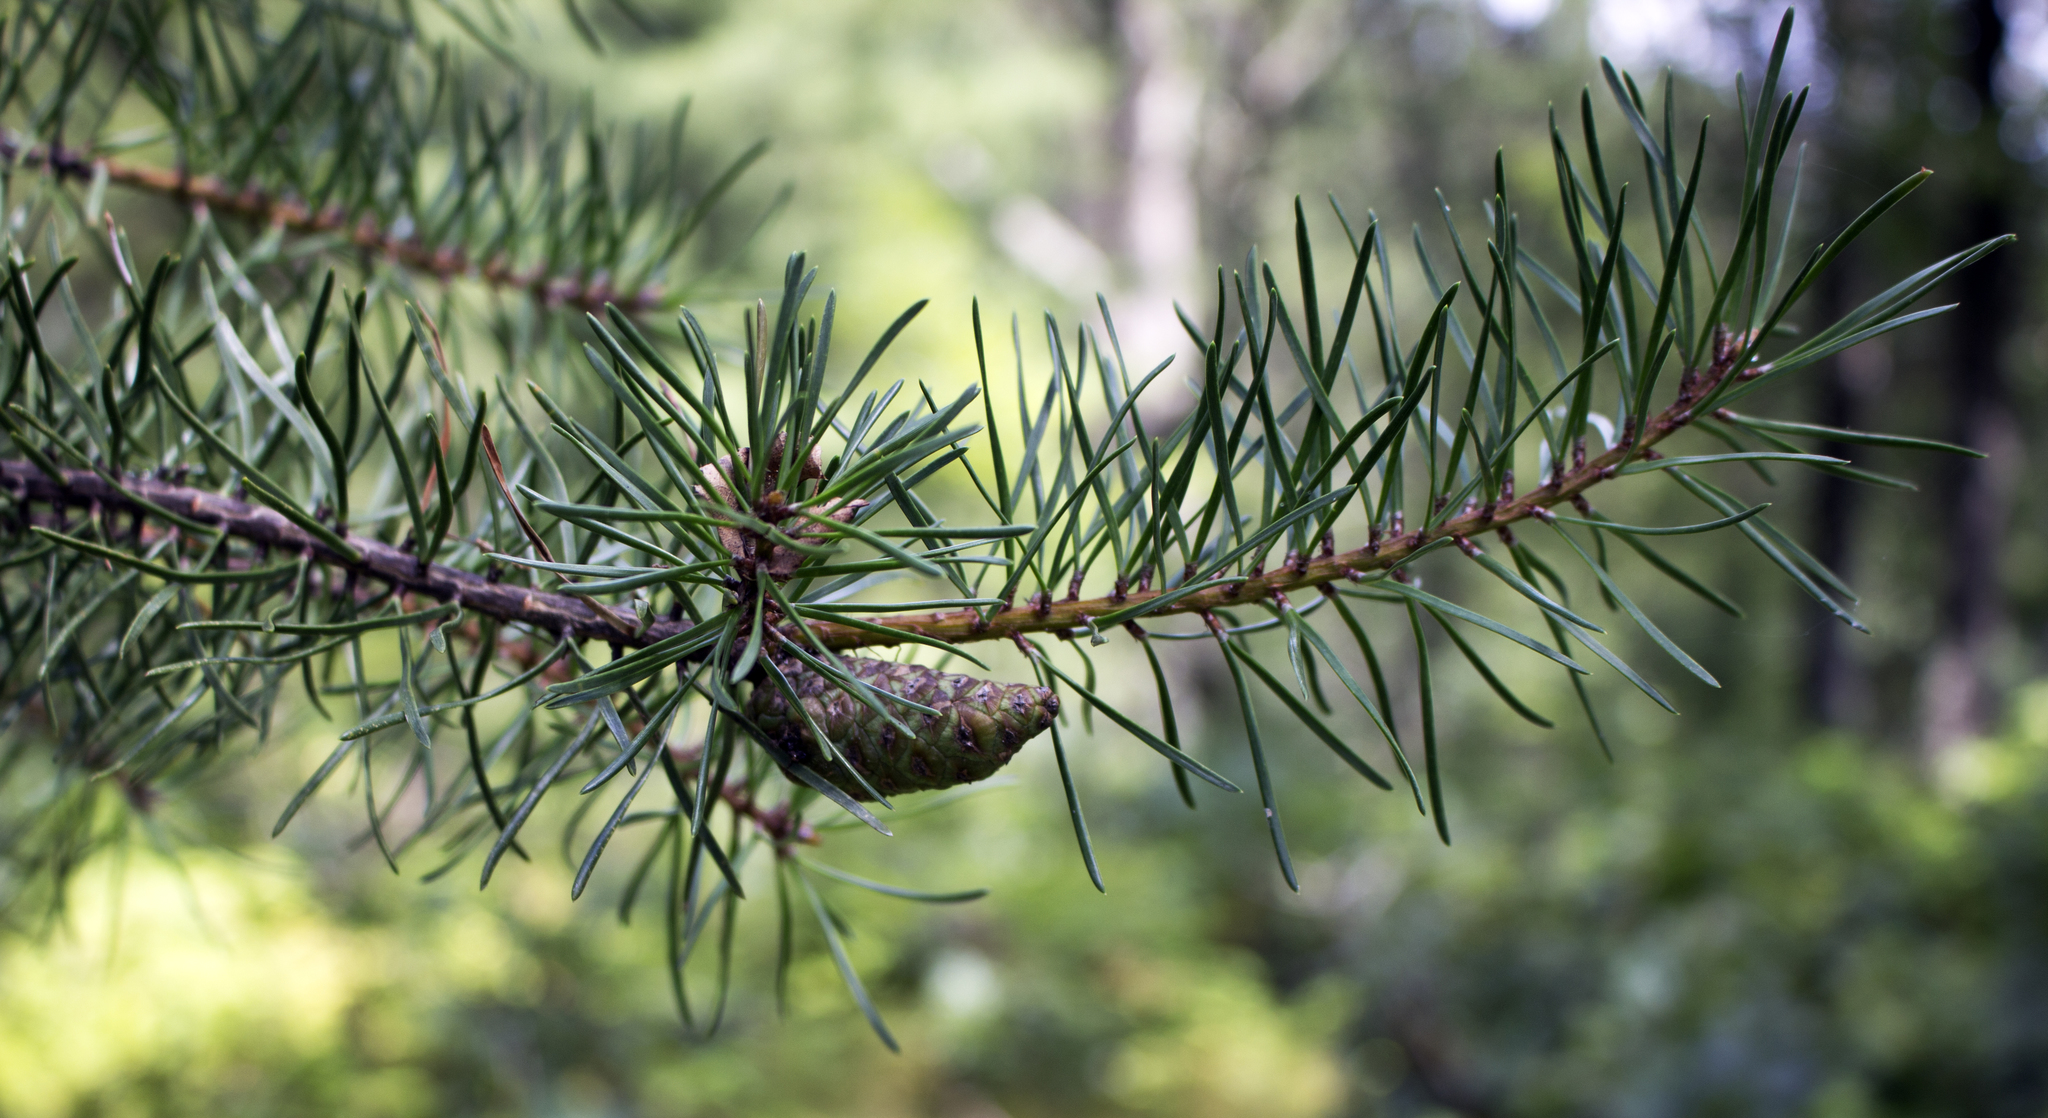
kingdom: Plantae
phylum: Tracheophyta
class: Pinopsida
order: Pinales
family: Pinaceae
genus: Pinus
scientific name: Pinus banksiana
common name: Jack pine
